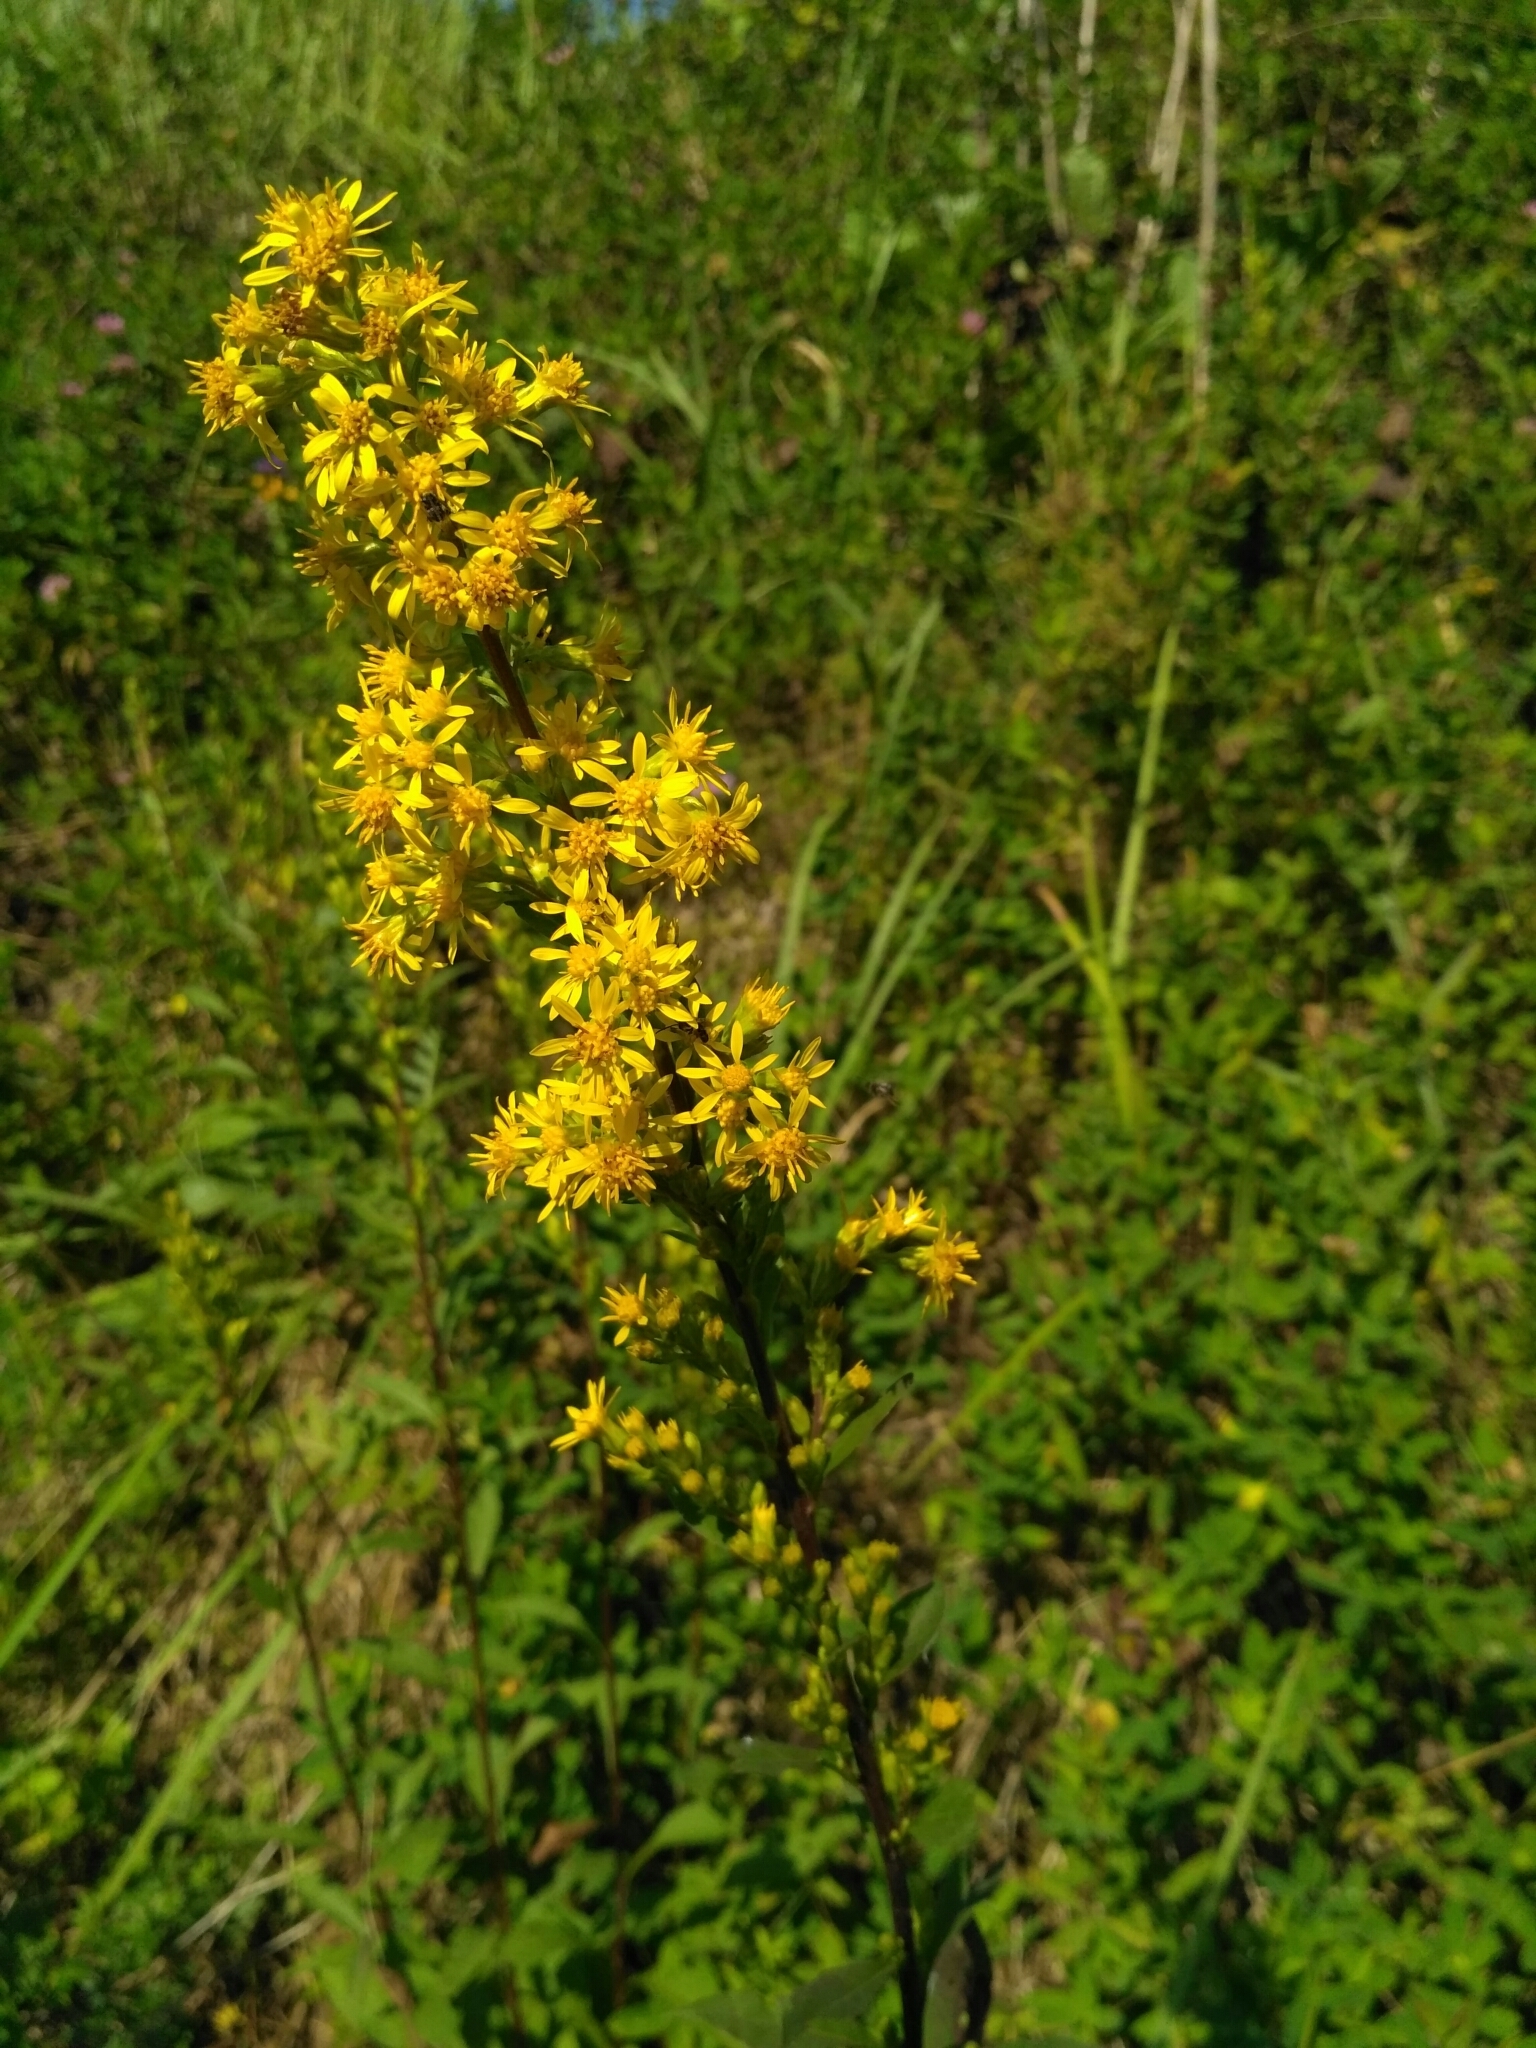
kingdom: Plantae
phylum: Tracheophyta
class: Magnoliopsida
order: Asterales
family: Asteraceae
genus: Solidago
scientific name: Solidago virgaurea
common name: Goldenrod
